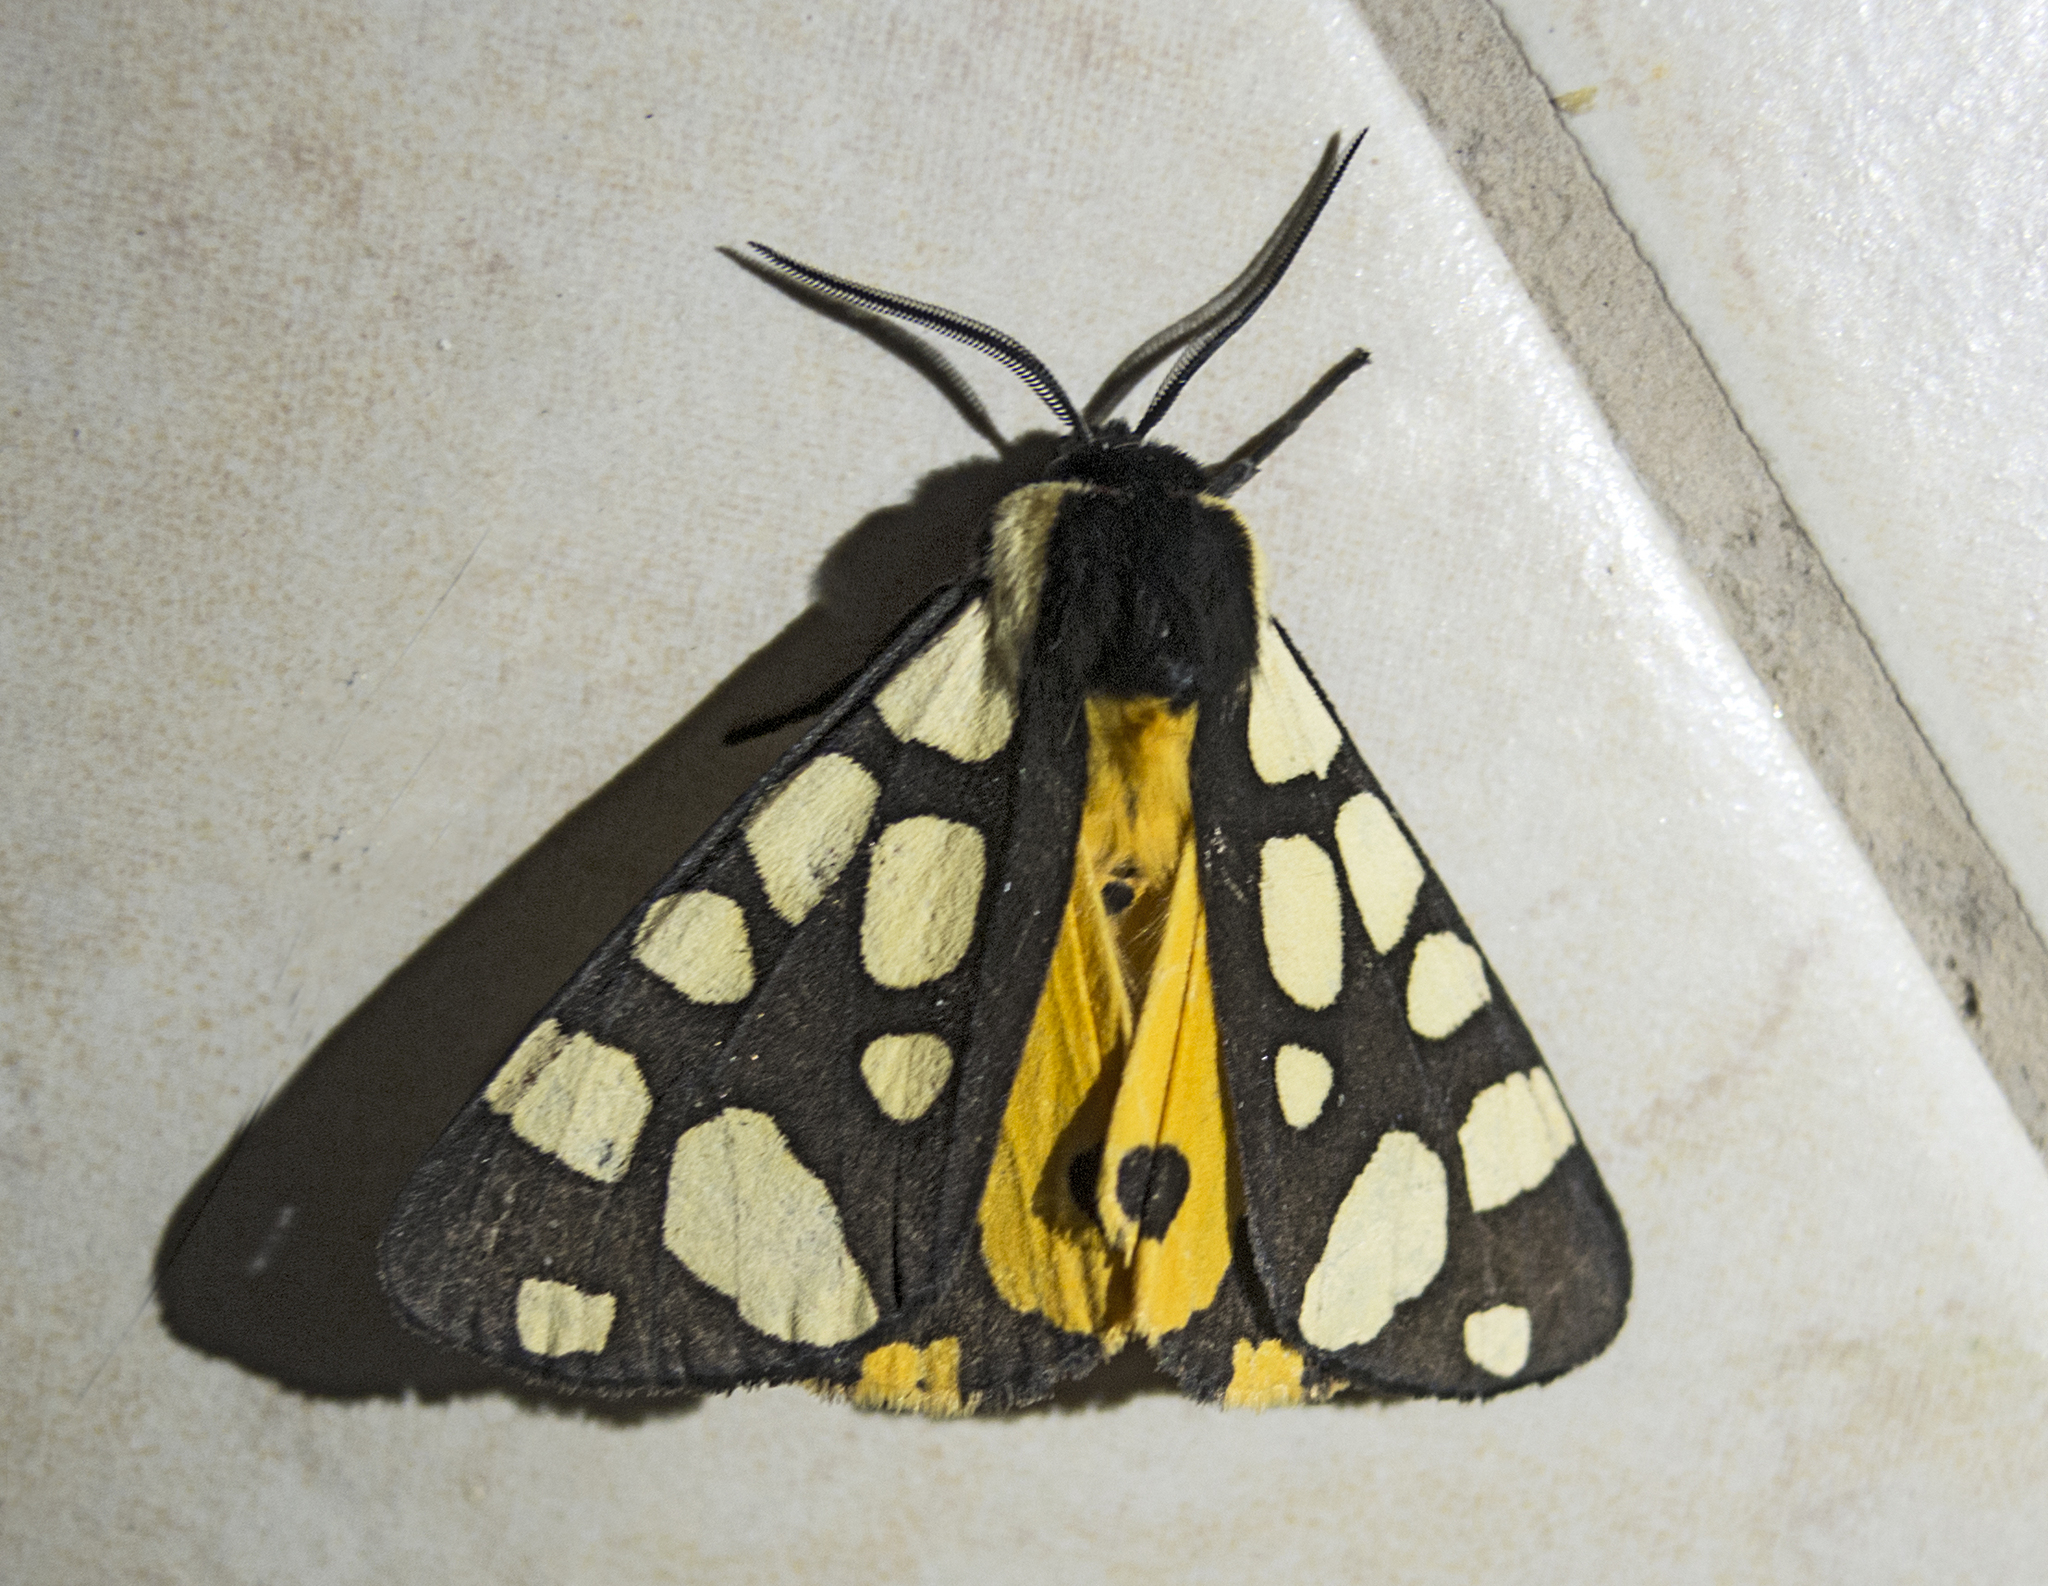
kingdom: Animalia
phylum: Arthropoda
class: Insecta
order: Lepidoptera
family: Erebidae
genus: Epicallia
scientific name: Epicallia villica
